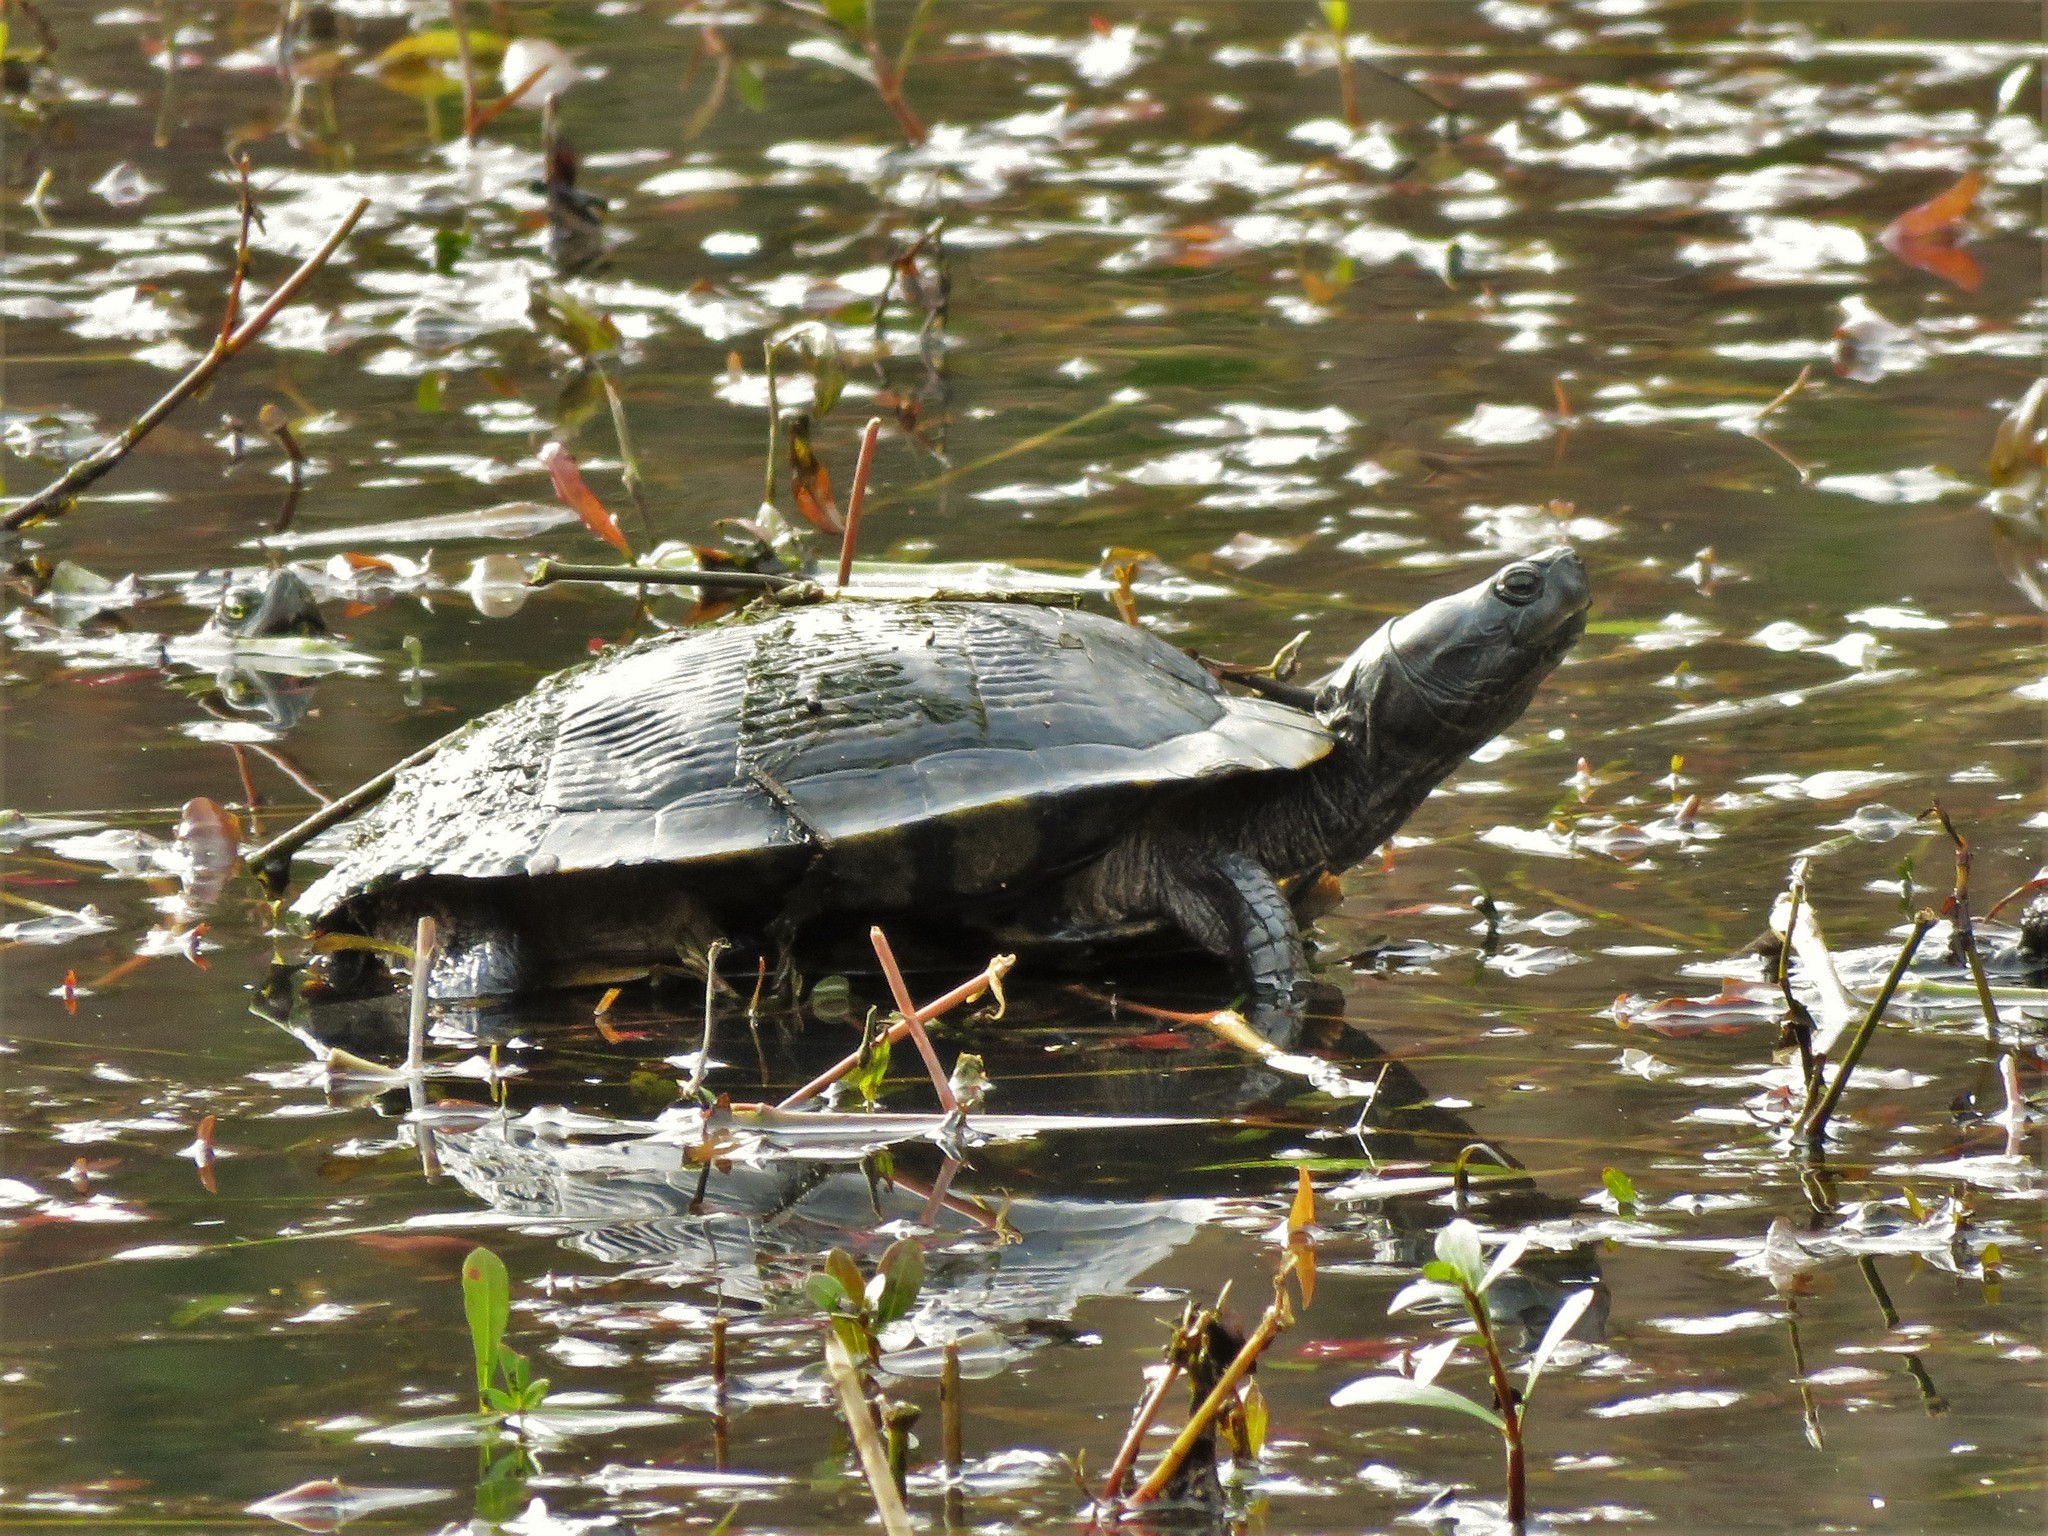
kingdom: Animalia
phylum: Chordata
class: Testudines
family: Emydidae
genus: Trachemys
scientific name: Trachemys scripta
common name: Slider
